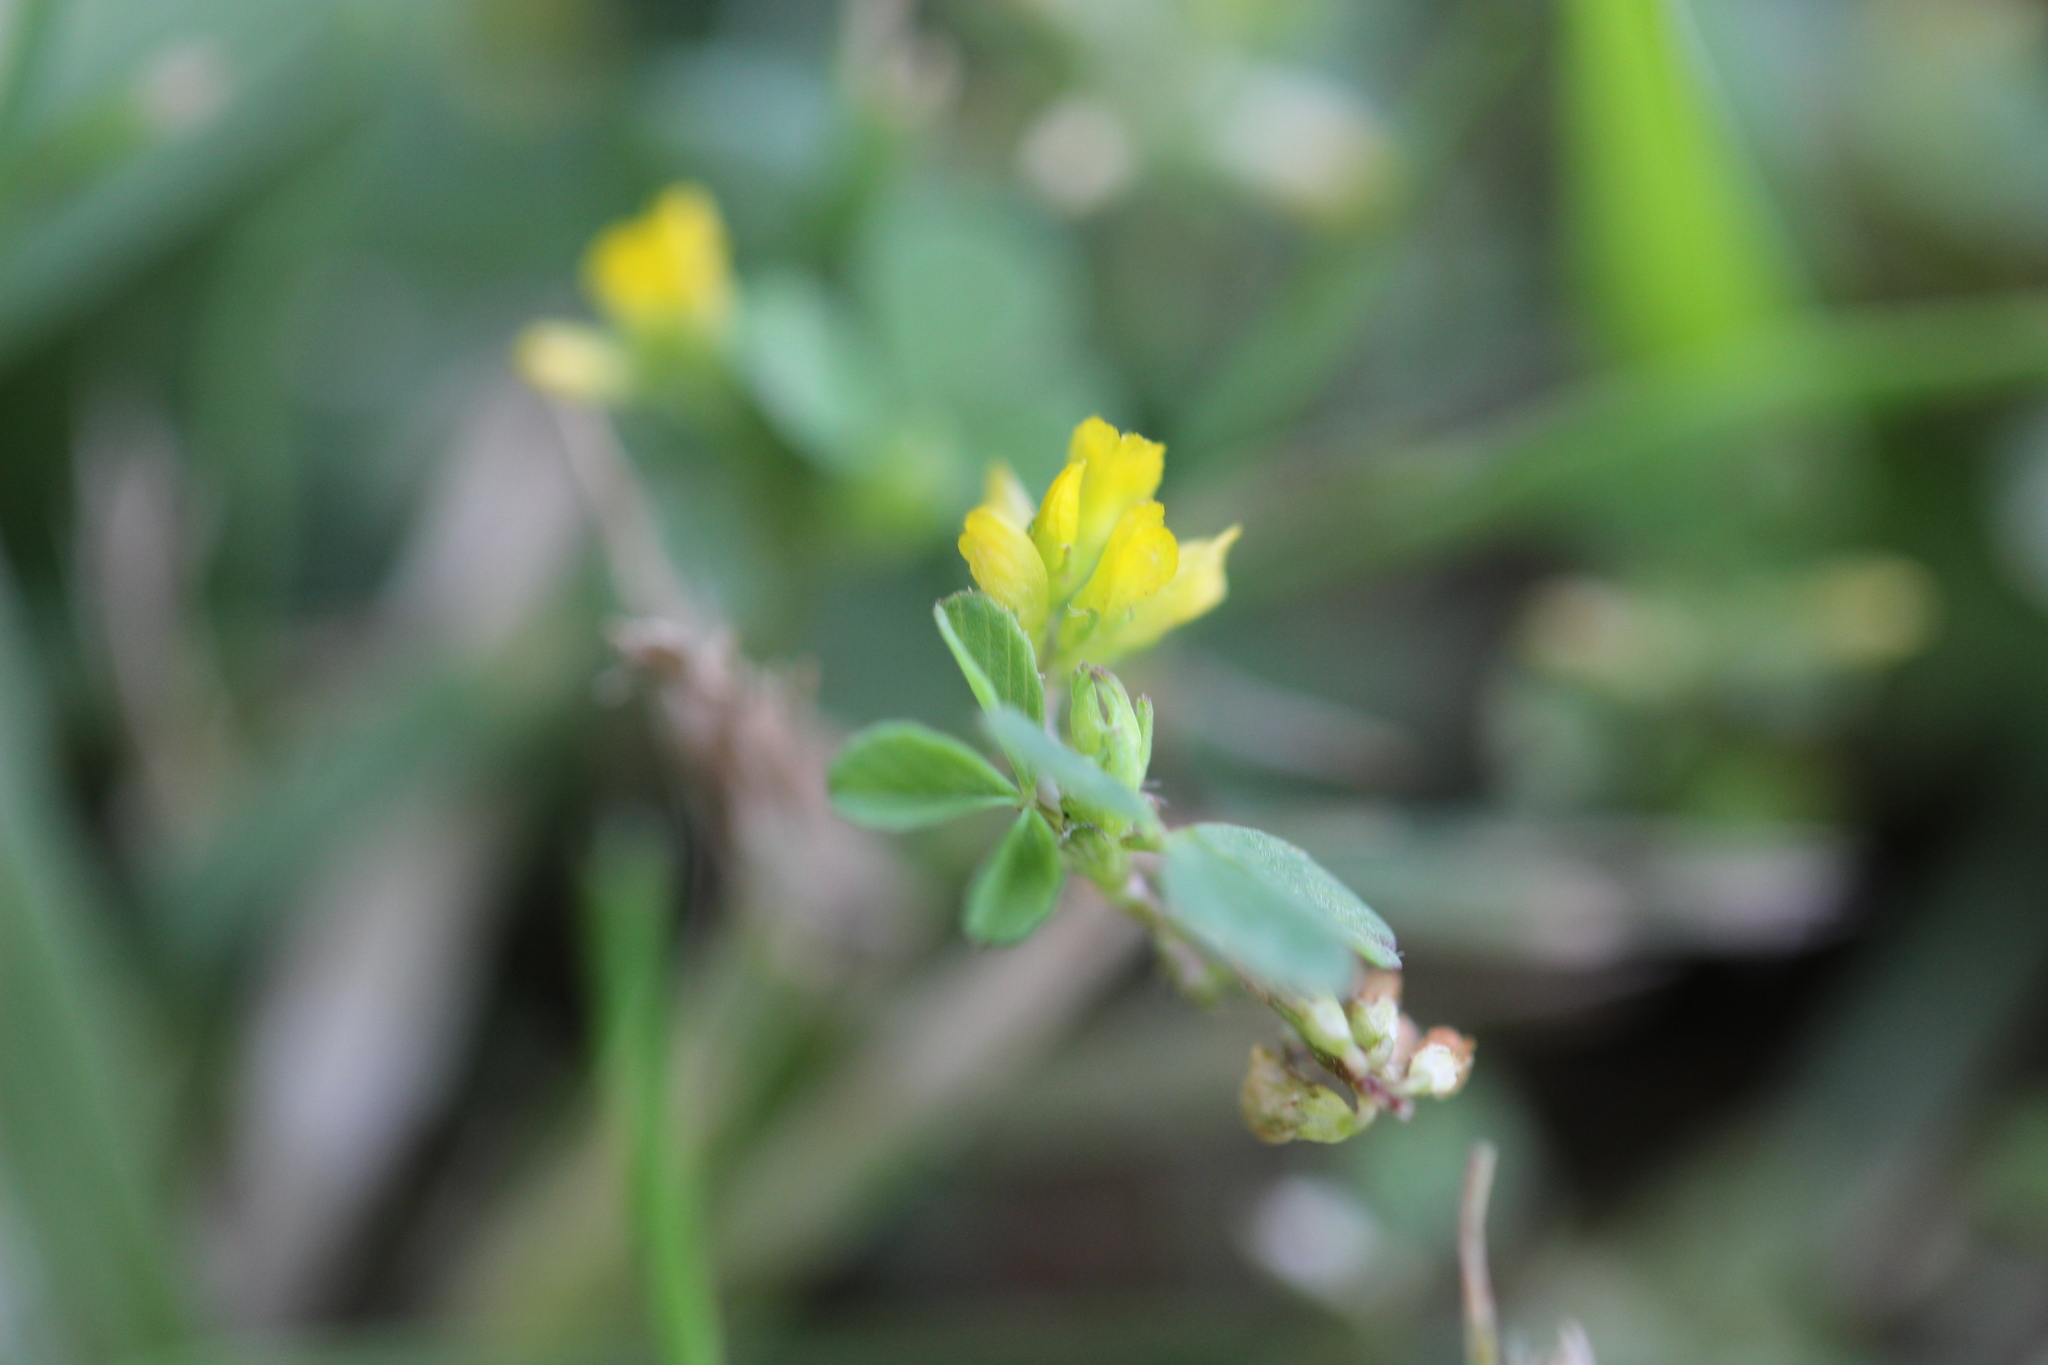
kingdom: Plantae
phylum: Tracheophyta
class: Magnoliopsida
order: Fabales
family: Fabaceae
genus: Trifolium
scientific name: Trifolium dubium
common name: Suckling clover
